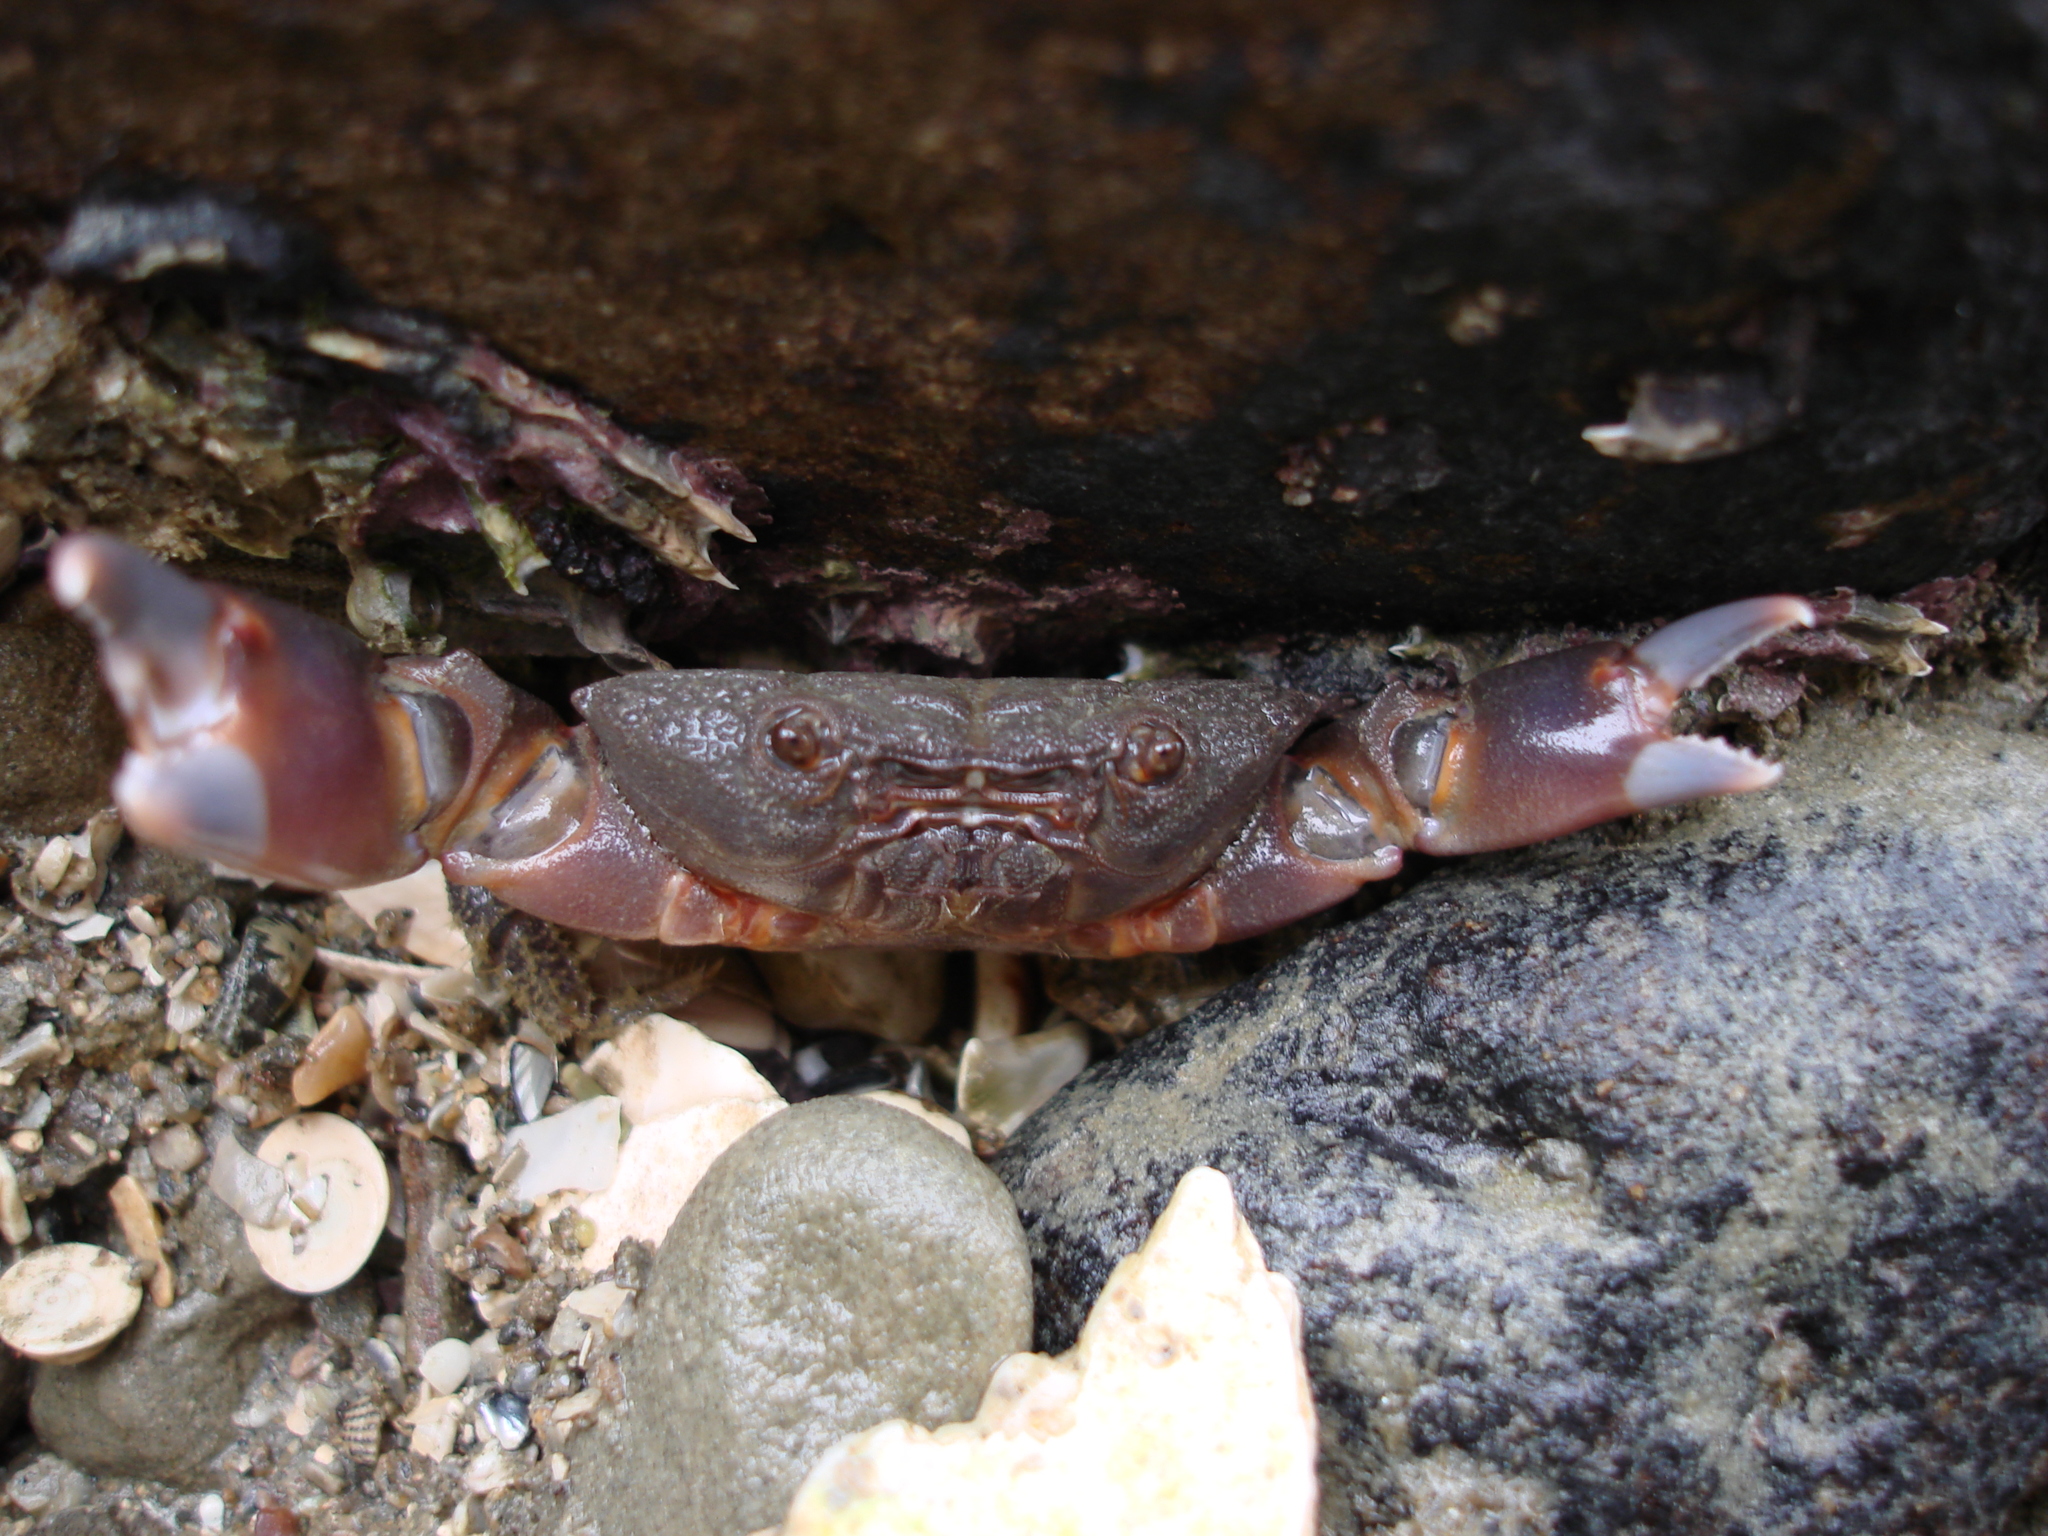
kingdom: Animalia
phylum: Arthropoda
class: Malacostraca
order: Decapoda
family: Oziidae
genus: Ozius
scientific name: Ozius deplanatus
